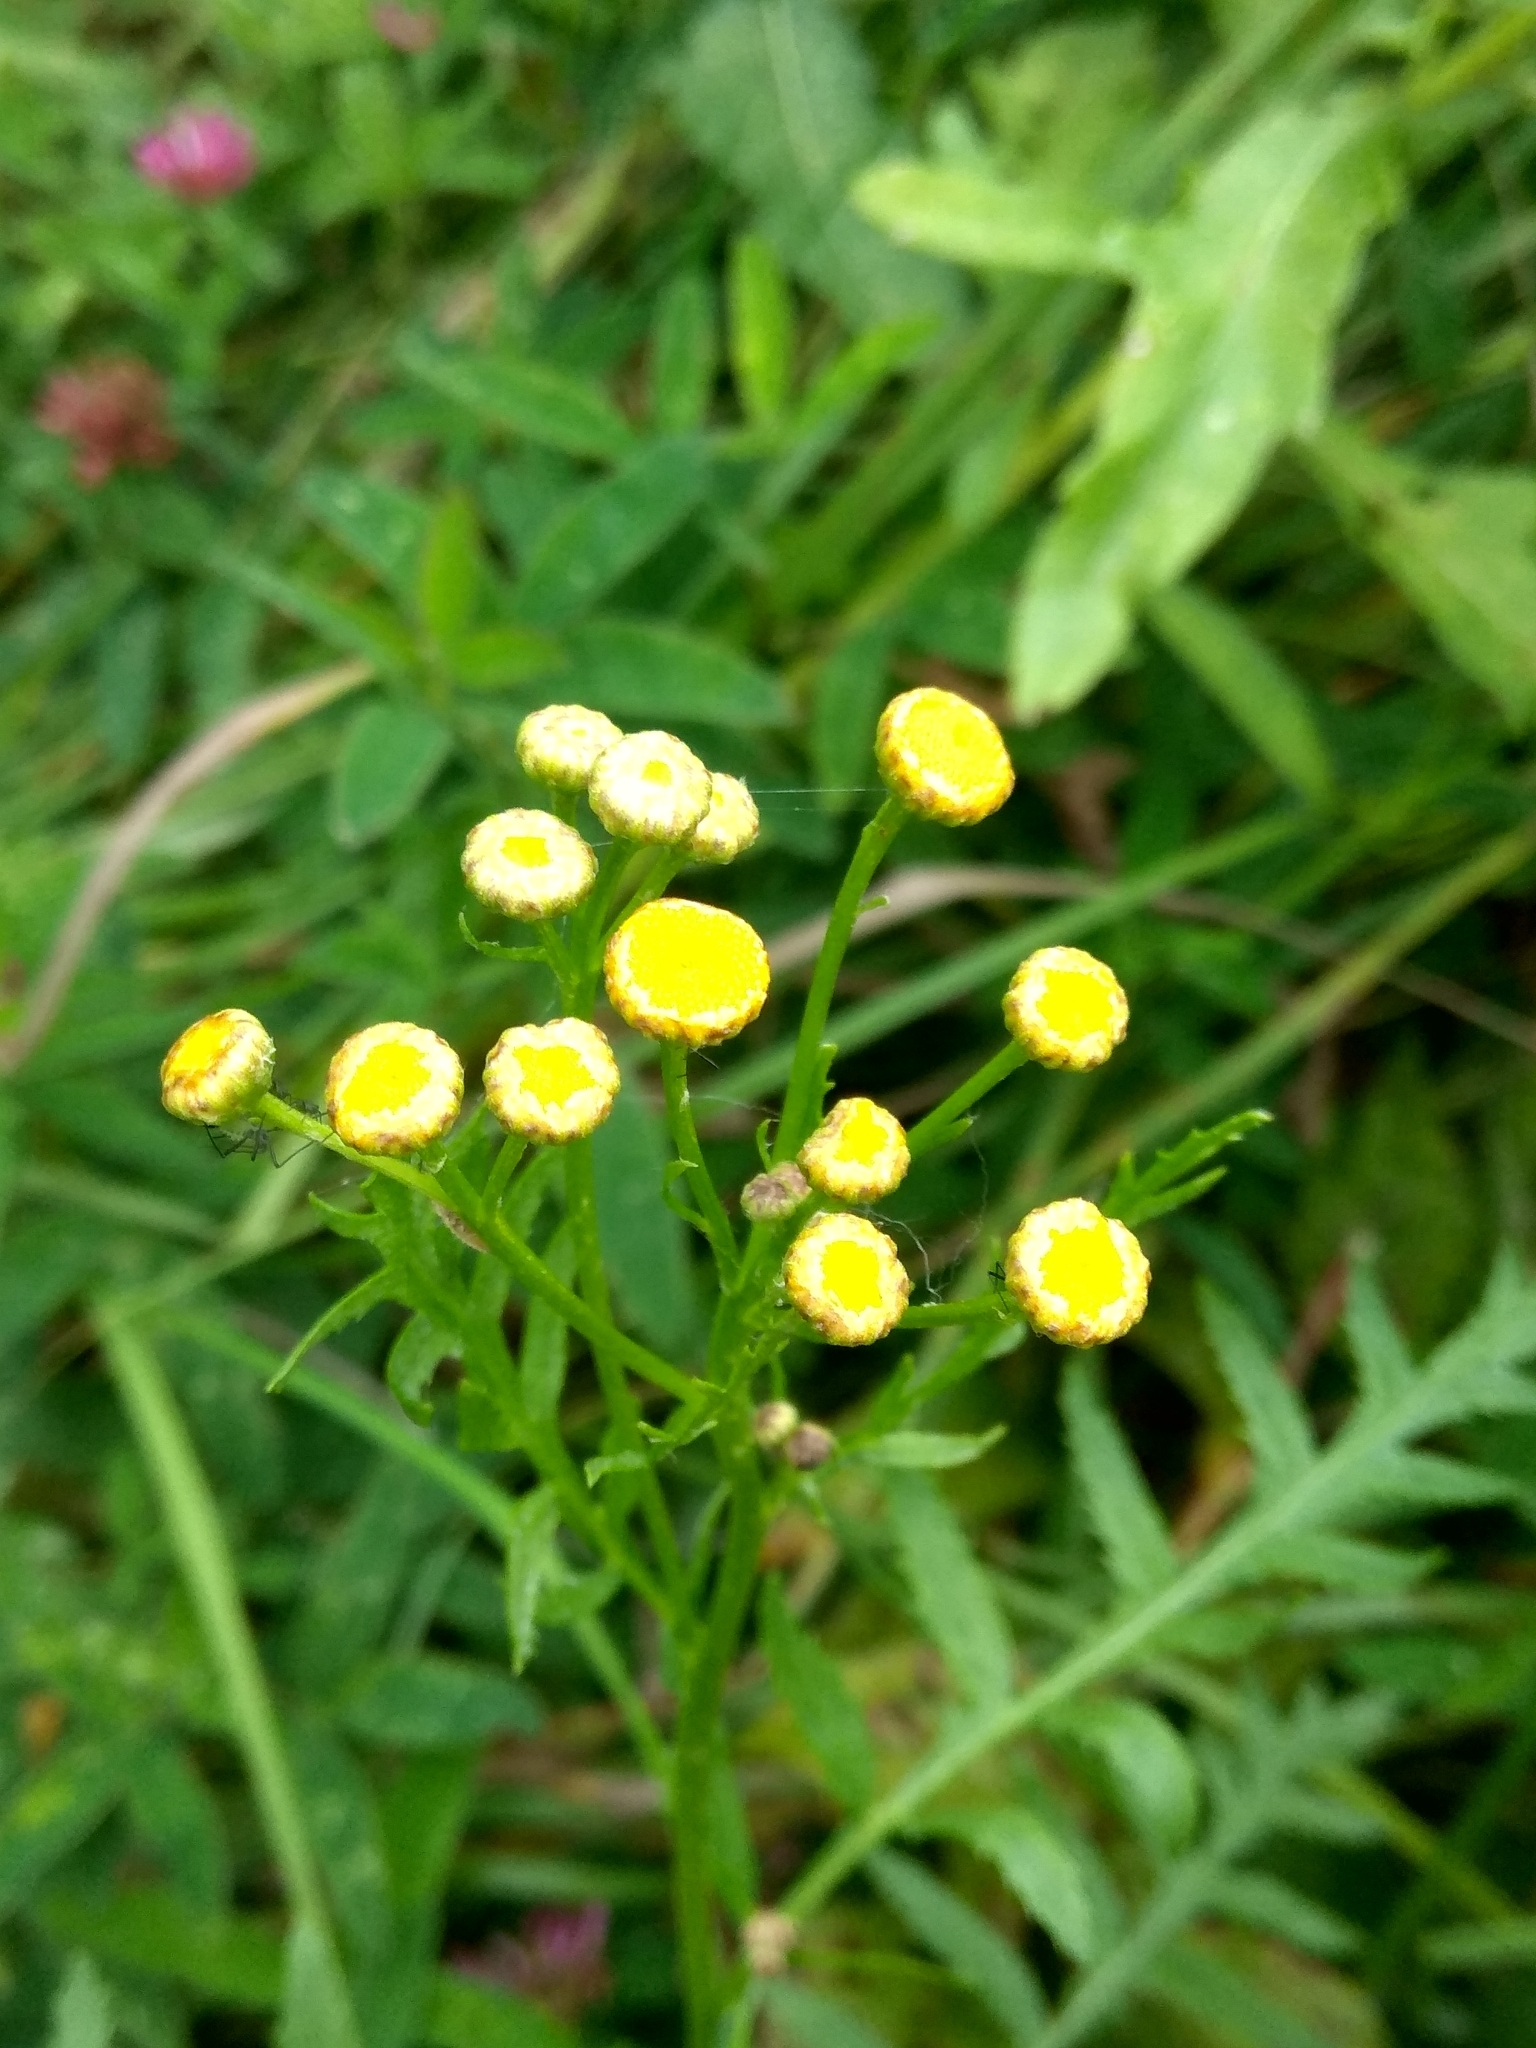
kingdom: Plantae
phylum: Tracheophyta
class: Magnoliopsida
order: Asterales
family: Asteraceae
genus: Tanacetum
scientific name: Tanacetum vulgare
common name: Common tansy
